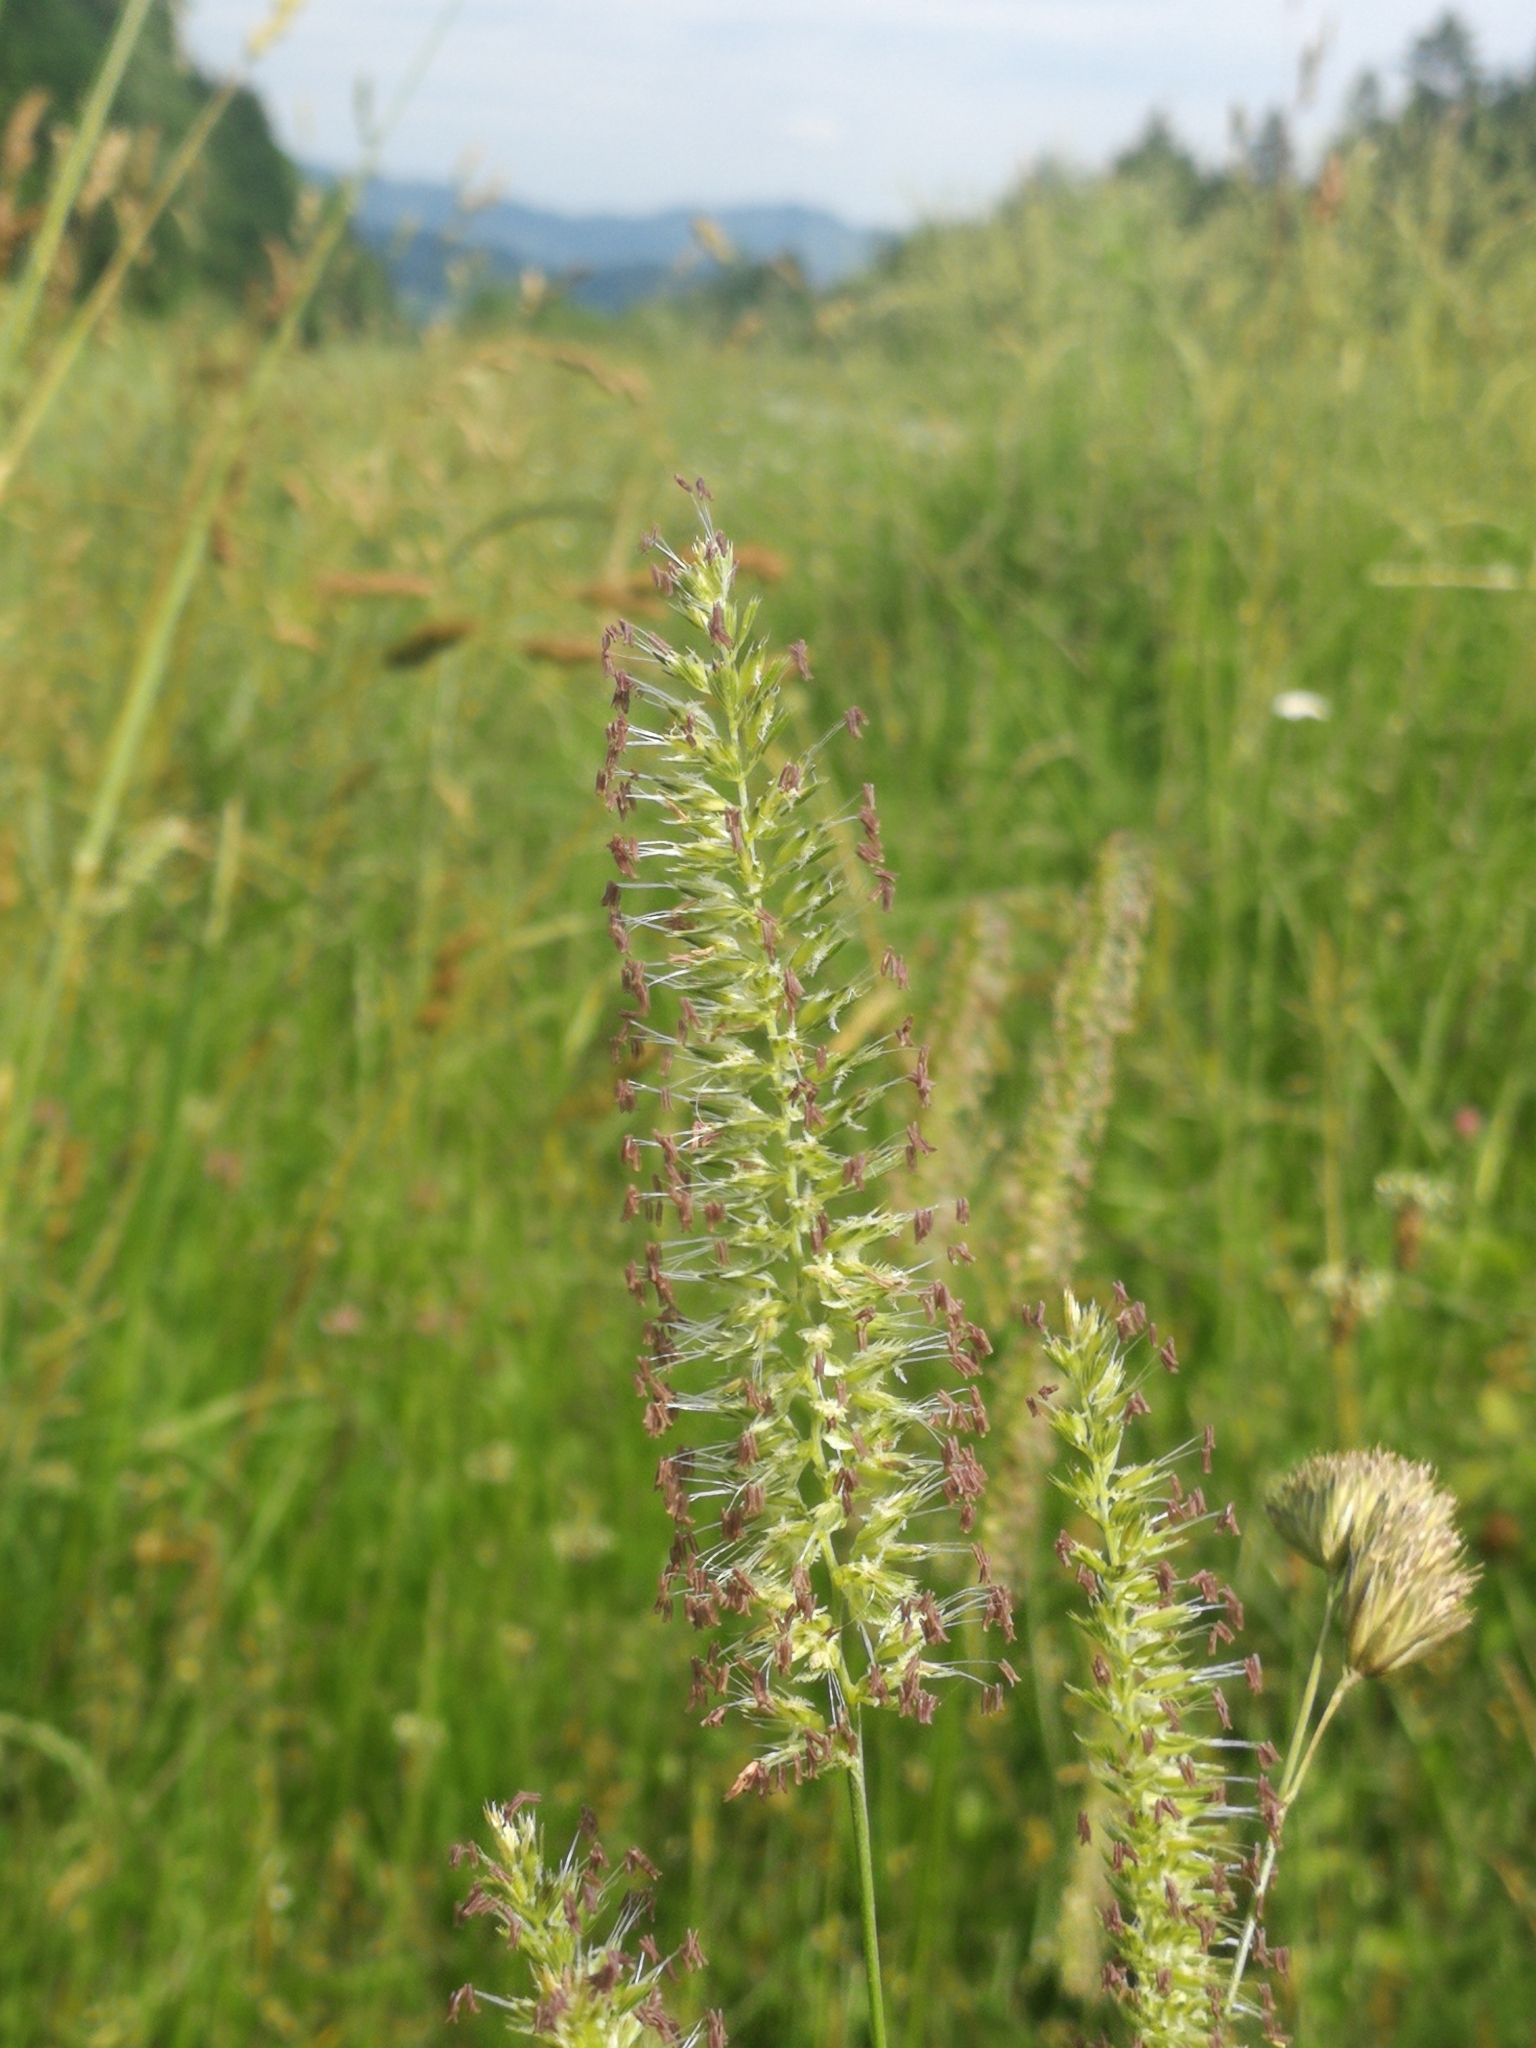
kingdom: Plantae
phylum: Tracheophyta
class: Liliopsida
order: Poales
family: Poaceae
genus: Cynosurus
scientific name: Cynosurus cristatus
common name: Crested dog's-tail
